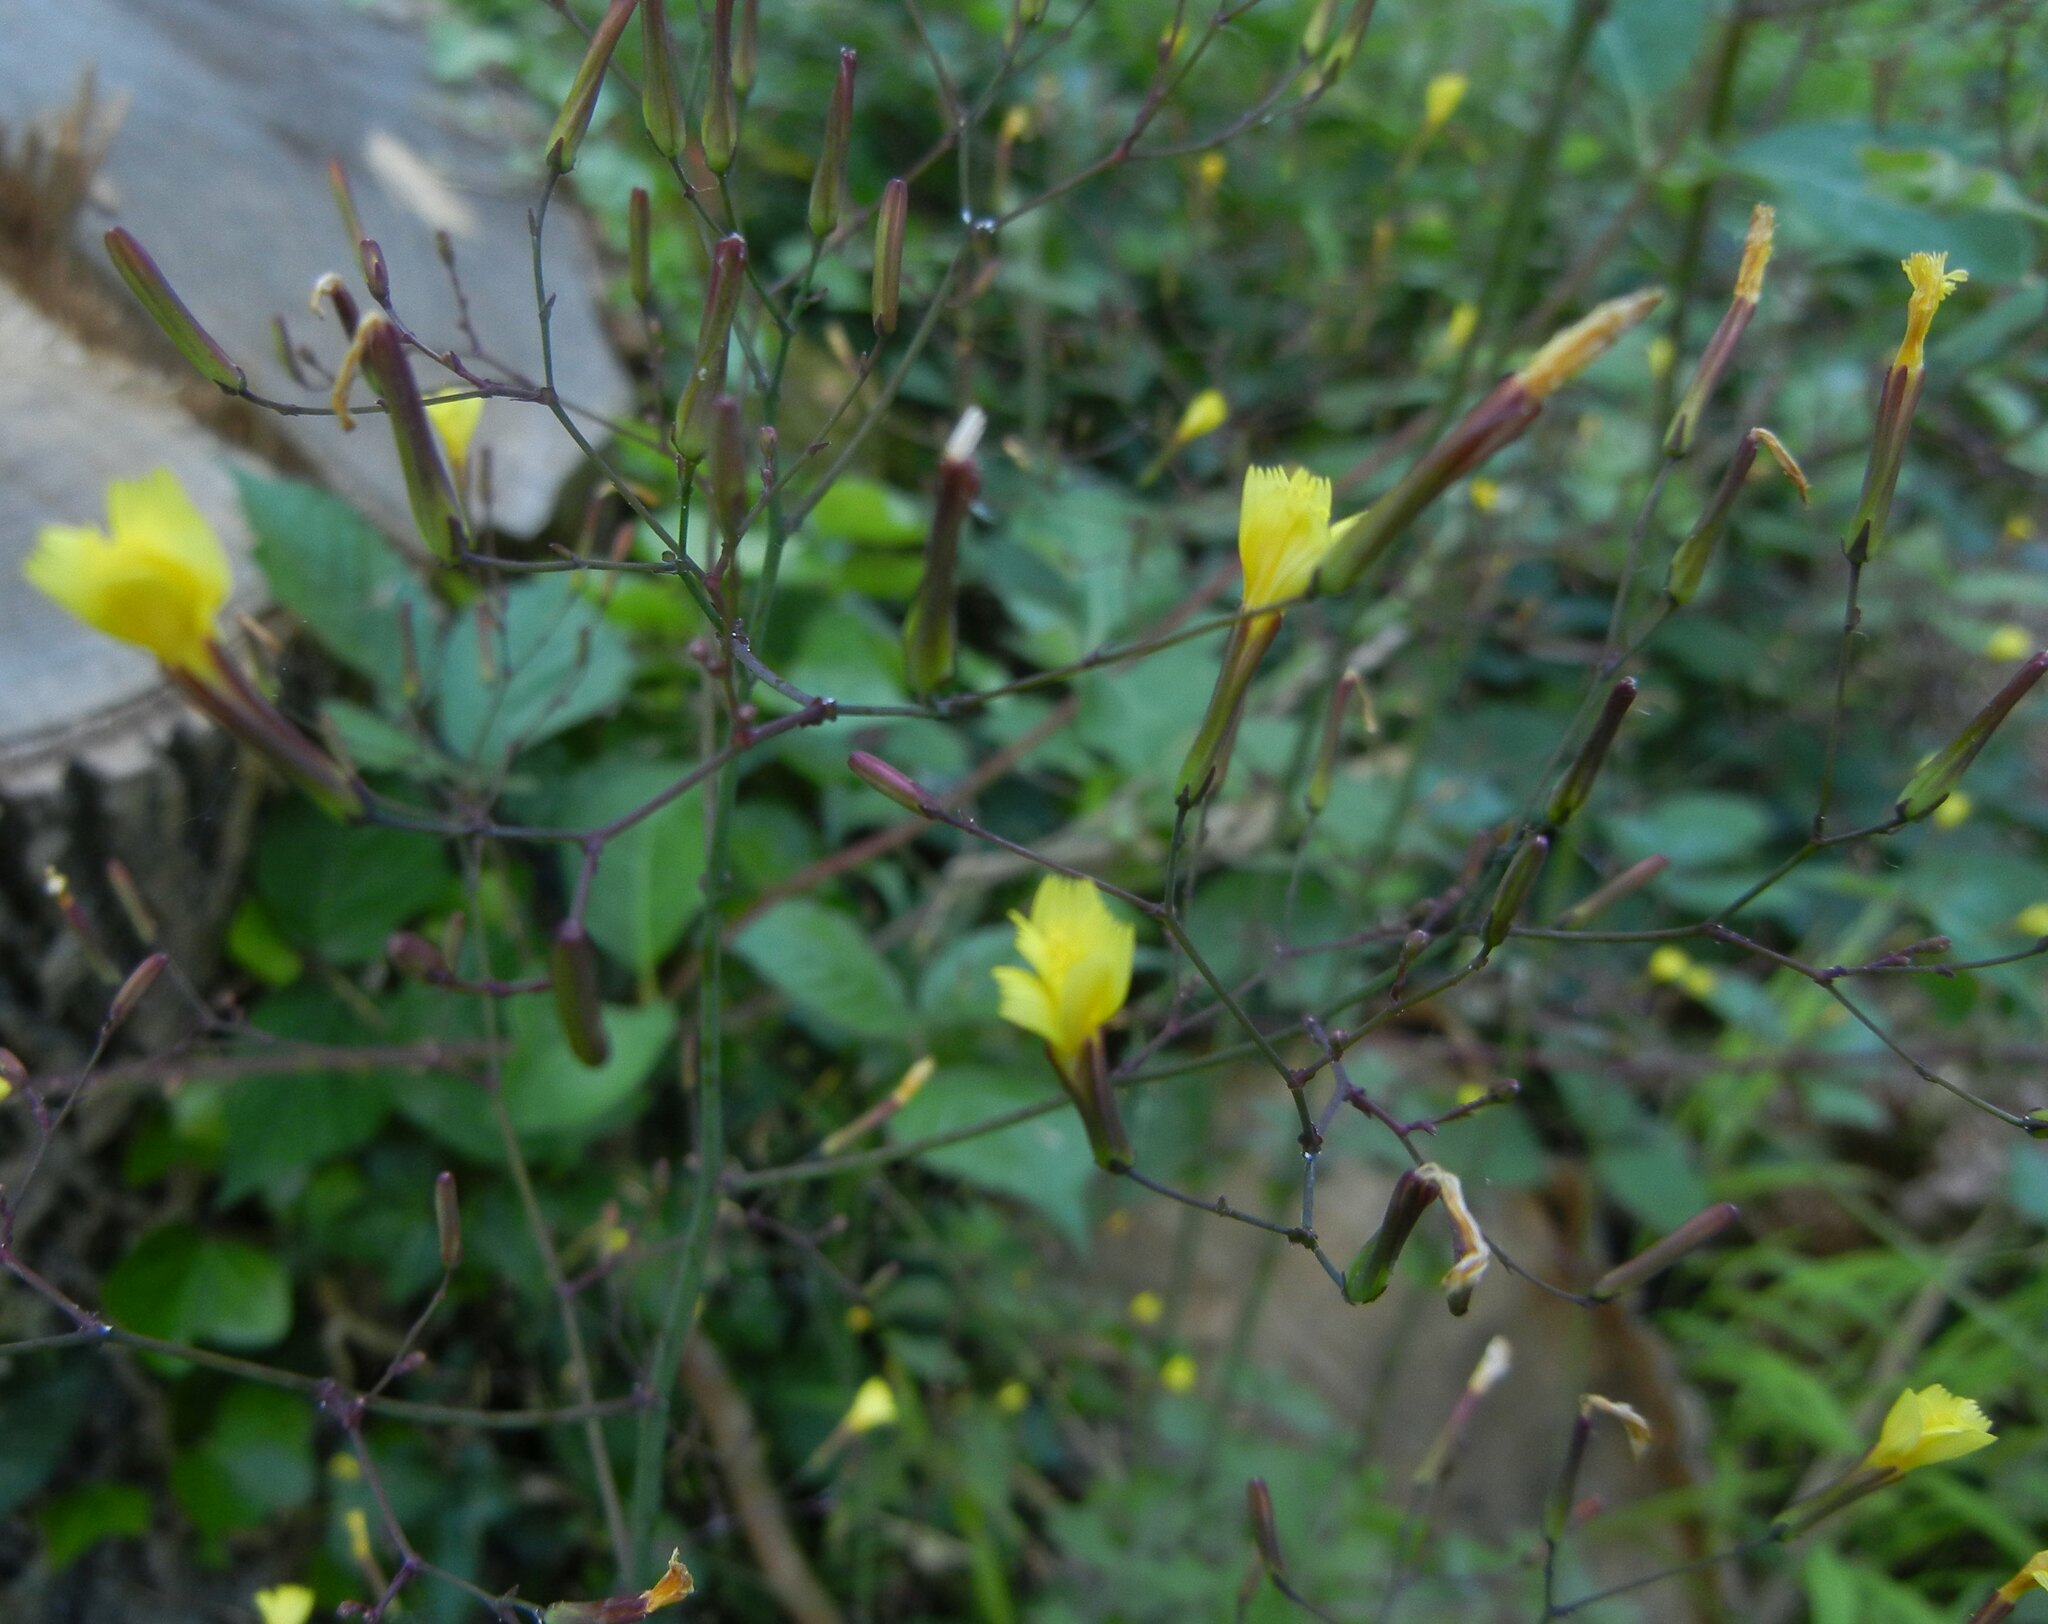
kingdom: Plantae
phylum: Tracheophyta
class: Magnoliopsida
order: Asterales
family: Asteraceae
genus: Mycelis
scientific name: Mycelis muralis
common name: Wall lettuce
